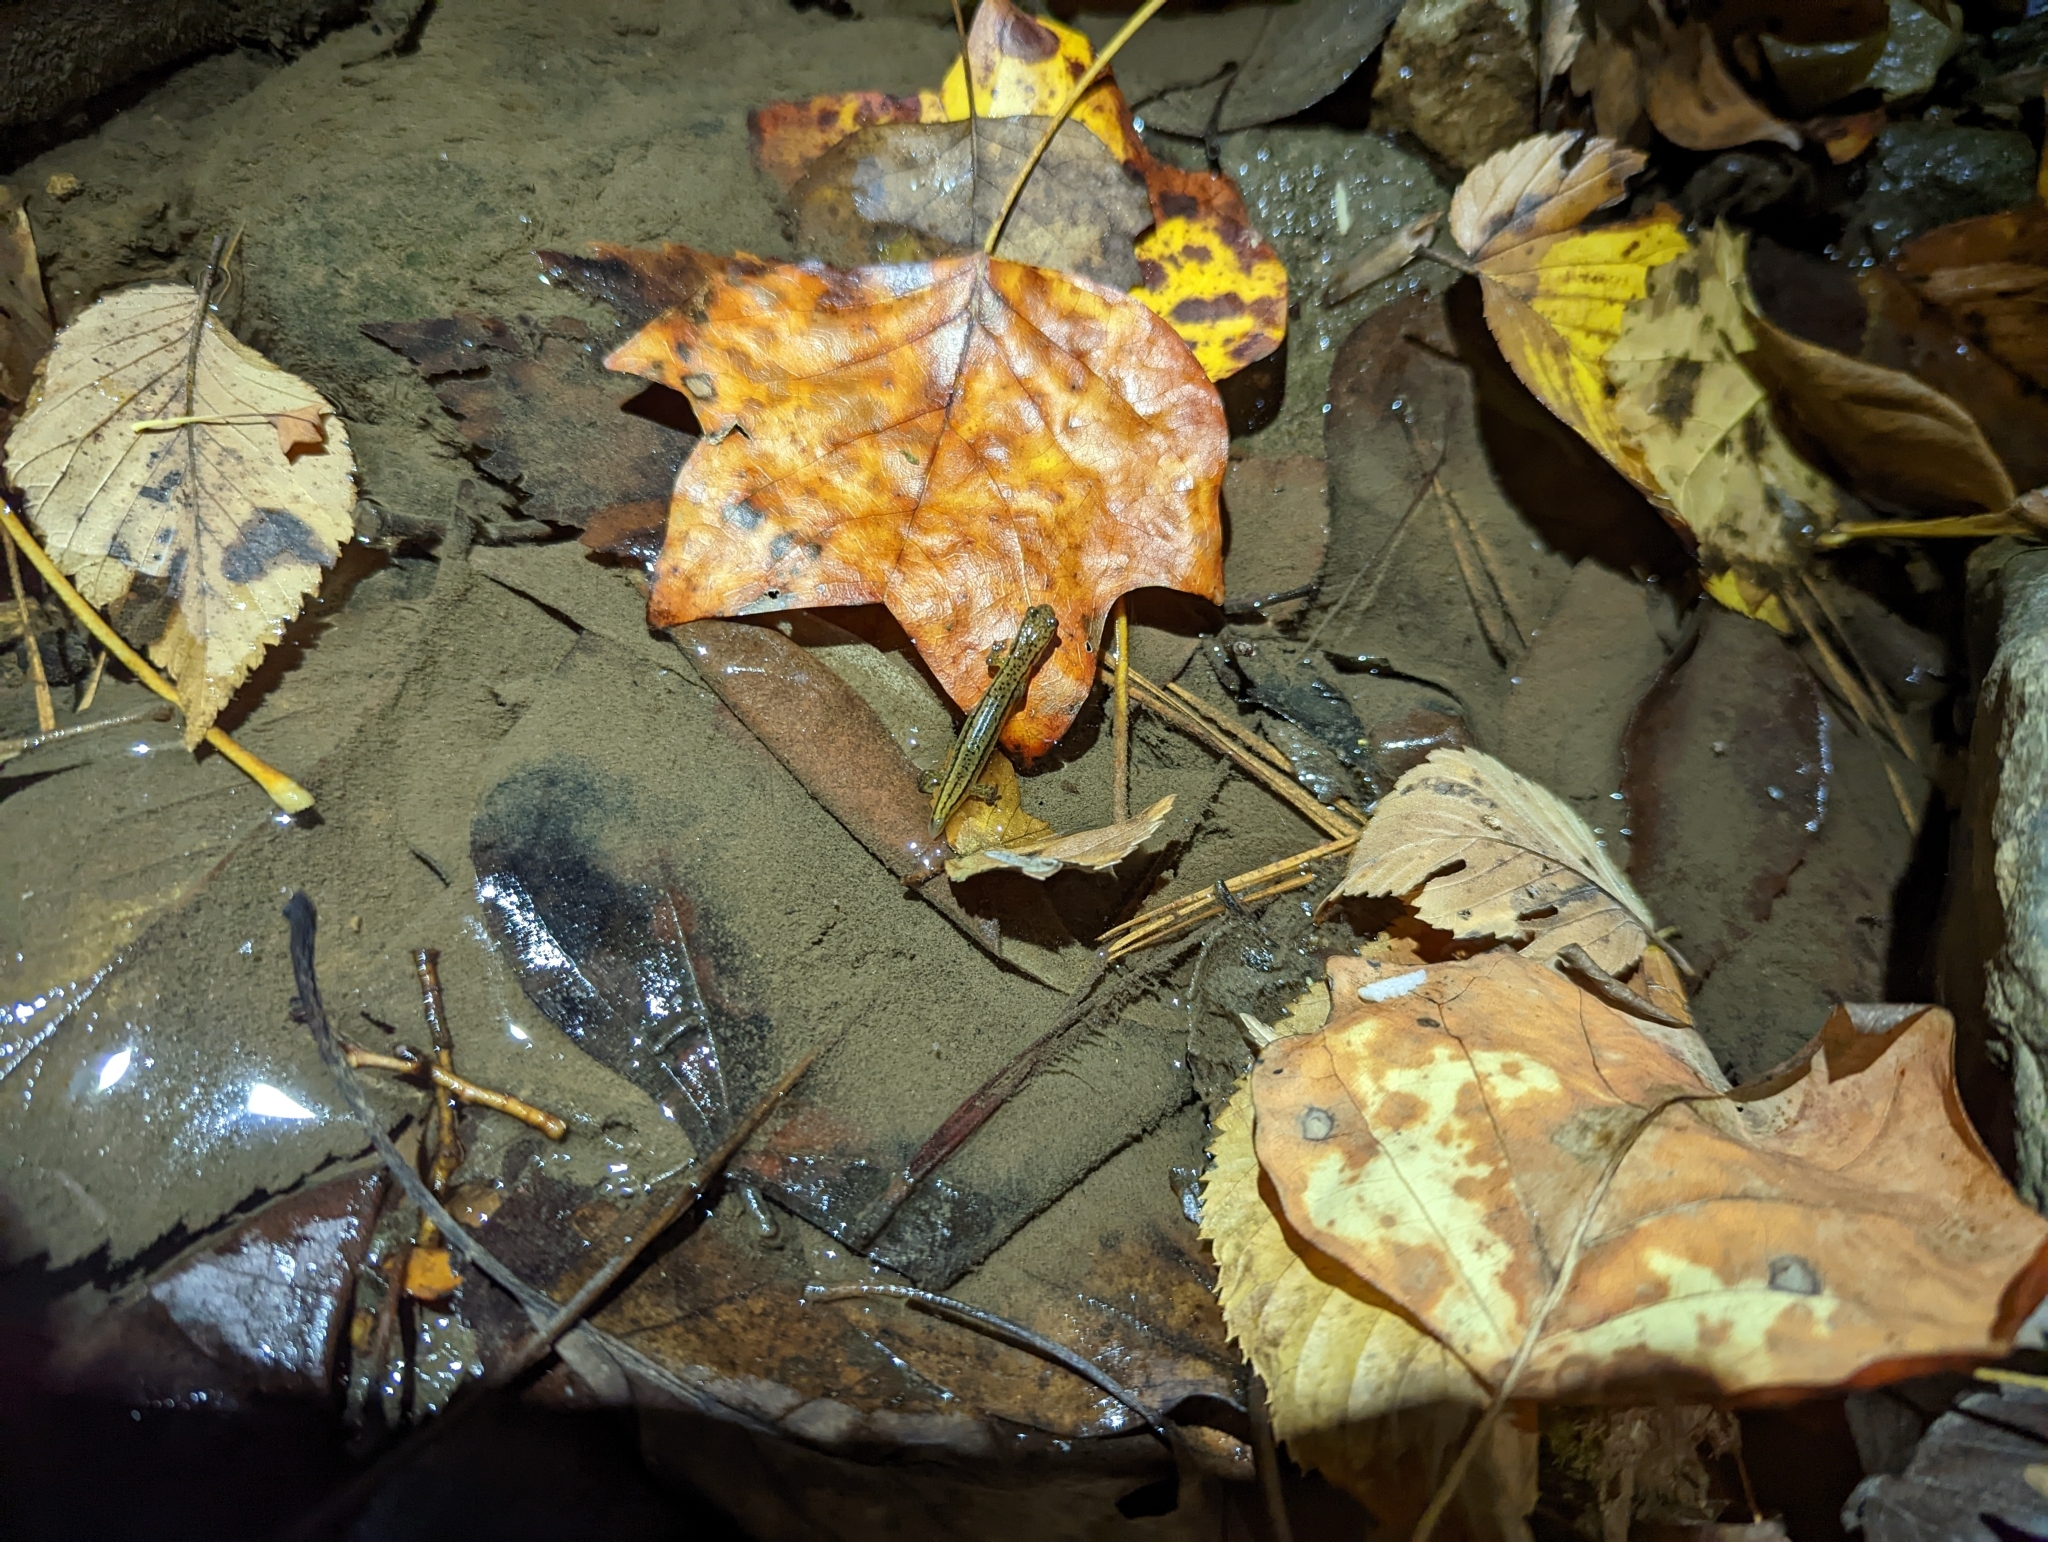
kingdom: Animalia
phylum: Chordata
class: Amphibia
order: Caudata
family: Plethodontidae
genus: Eurycea
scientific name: Eurycea cirrigera
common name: Southern two-lined salamander
